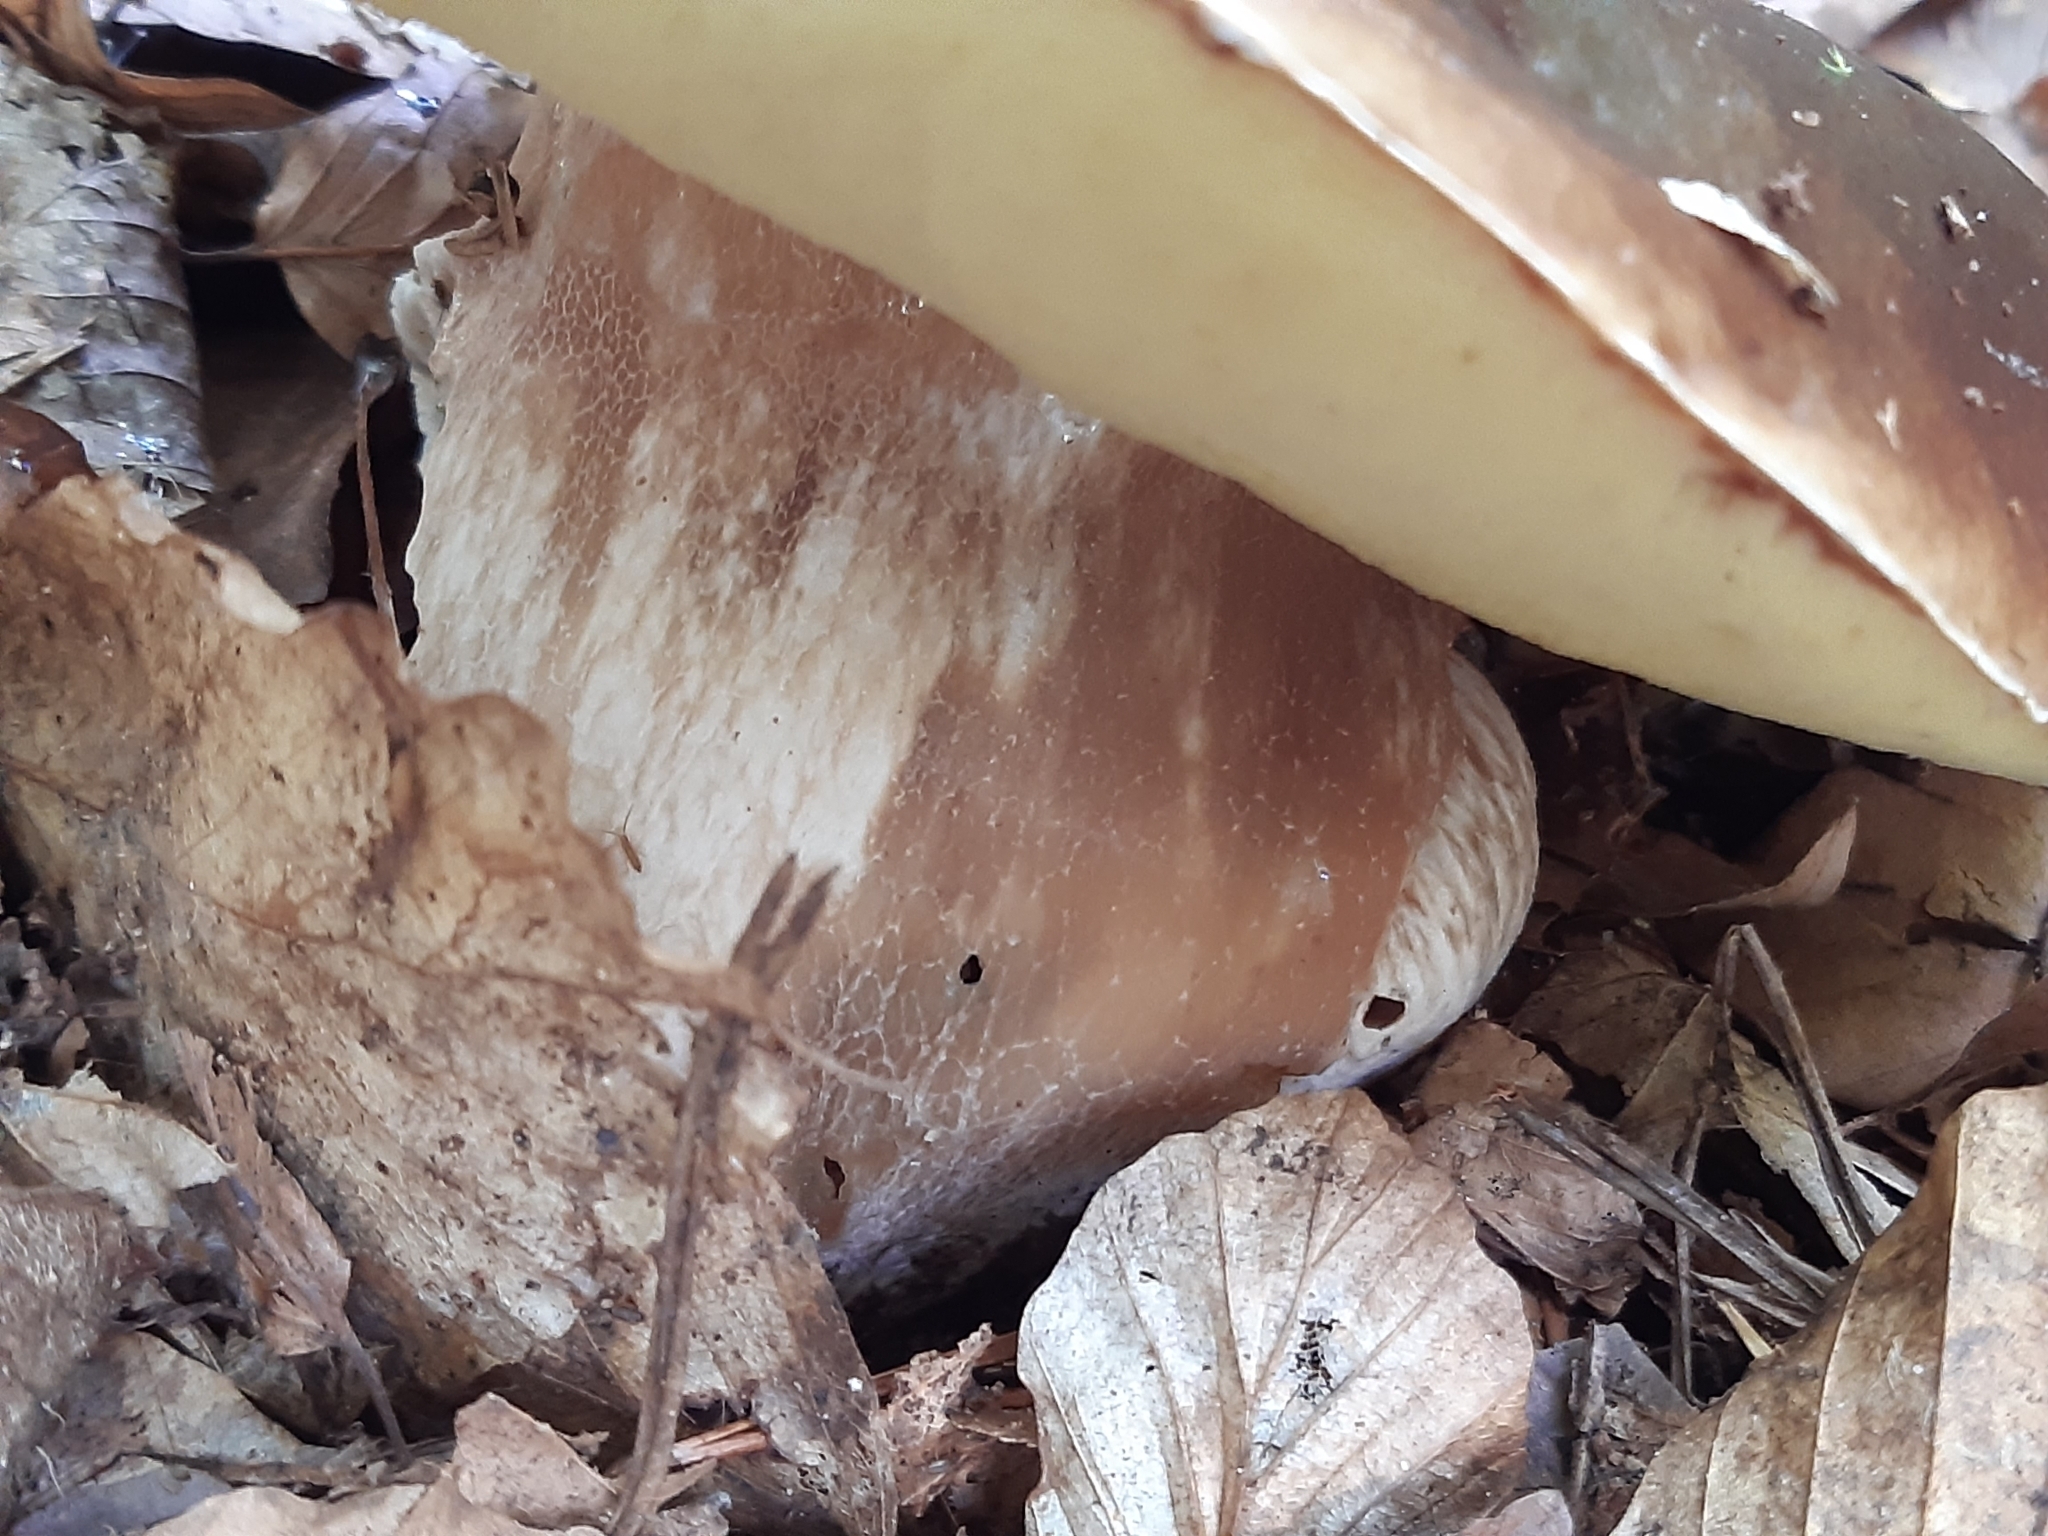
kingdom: Fungi
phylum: Basidiomycota
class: Agaricomycetes
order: Boletales
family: Boletaceae
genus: Boletus
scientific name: Boletus edulis
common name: Cep
